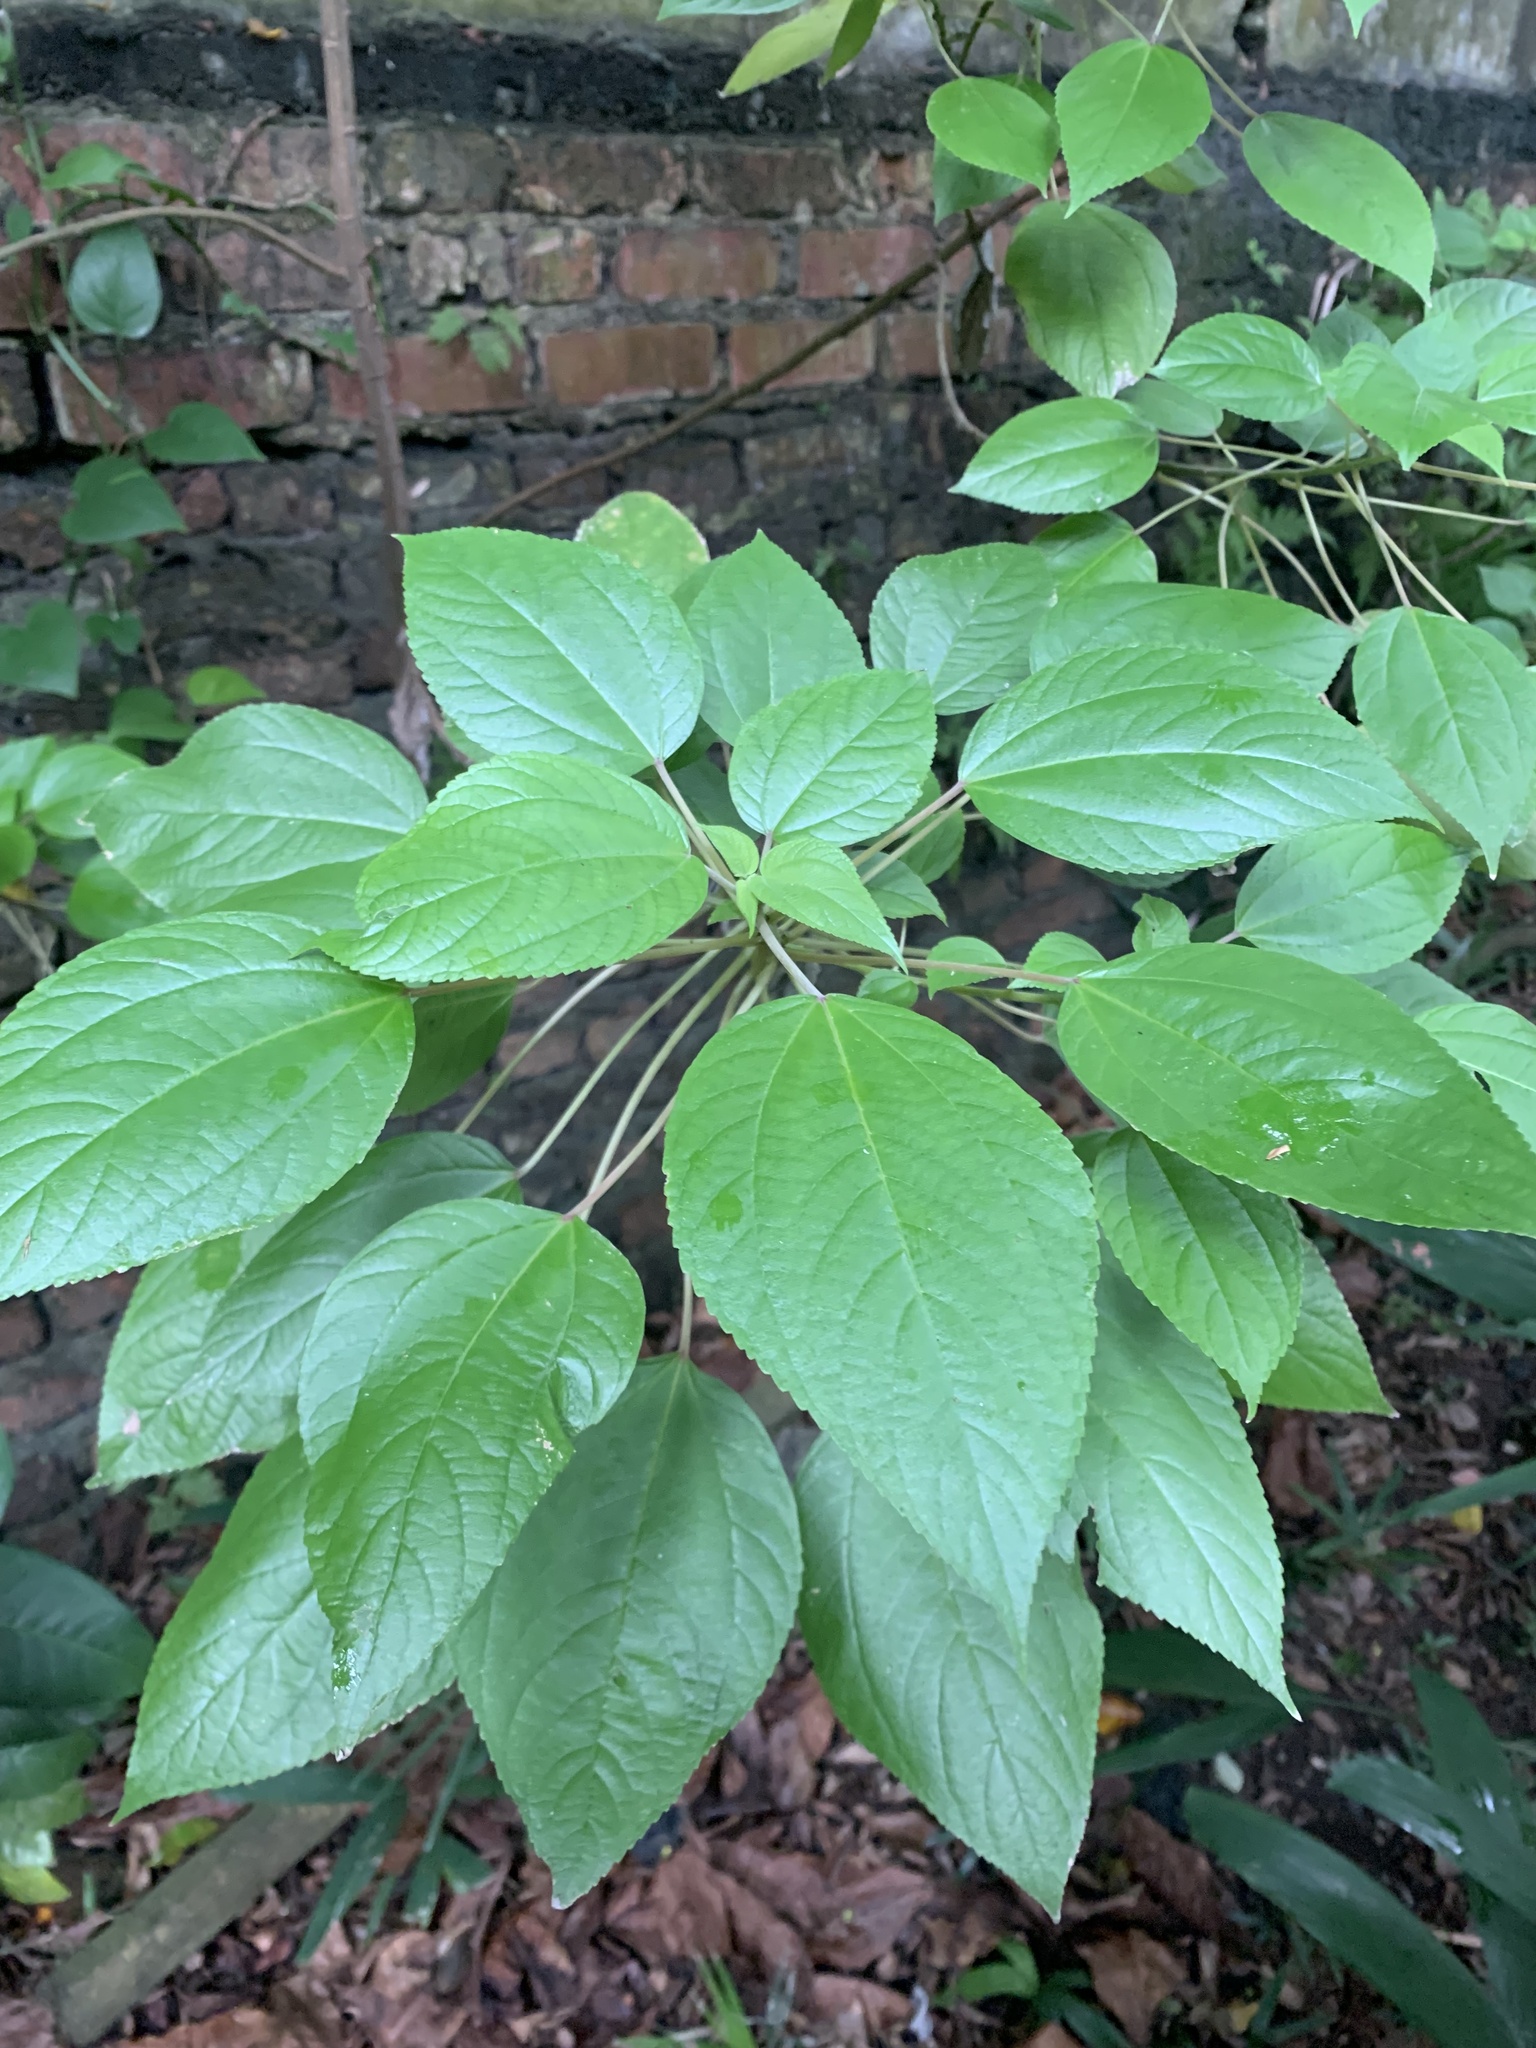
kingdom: Plantae
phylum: Tracheophyta
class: Magnoliopsida
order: Rosales
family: Urticaceae
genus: Pipturus
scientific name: Pipturus argenteus
